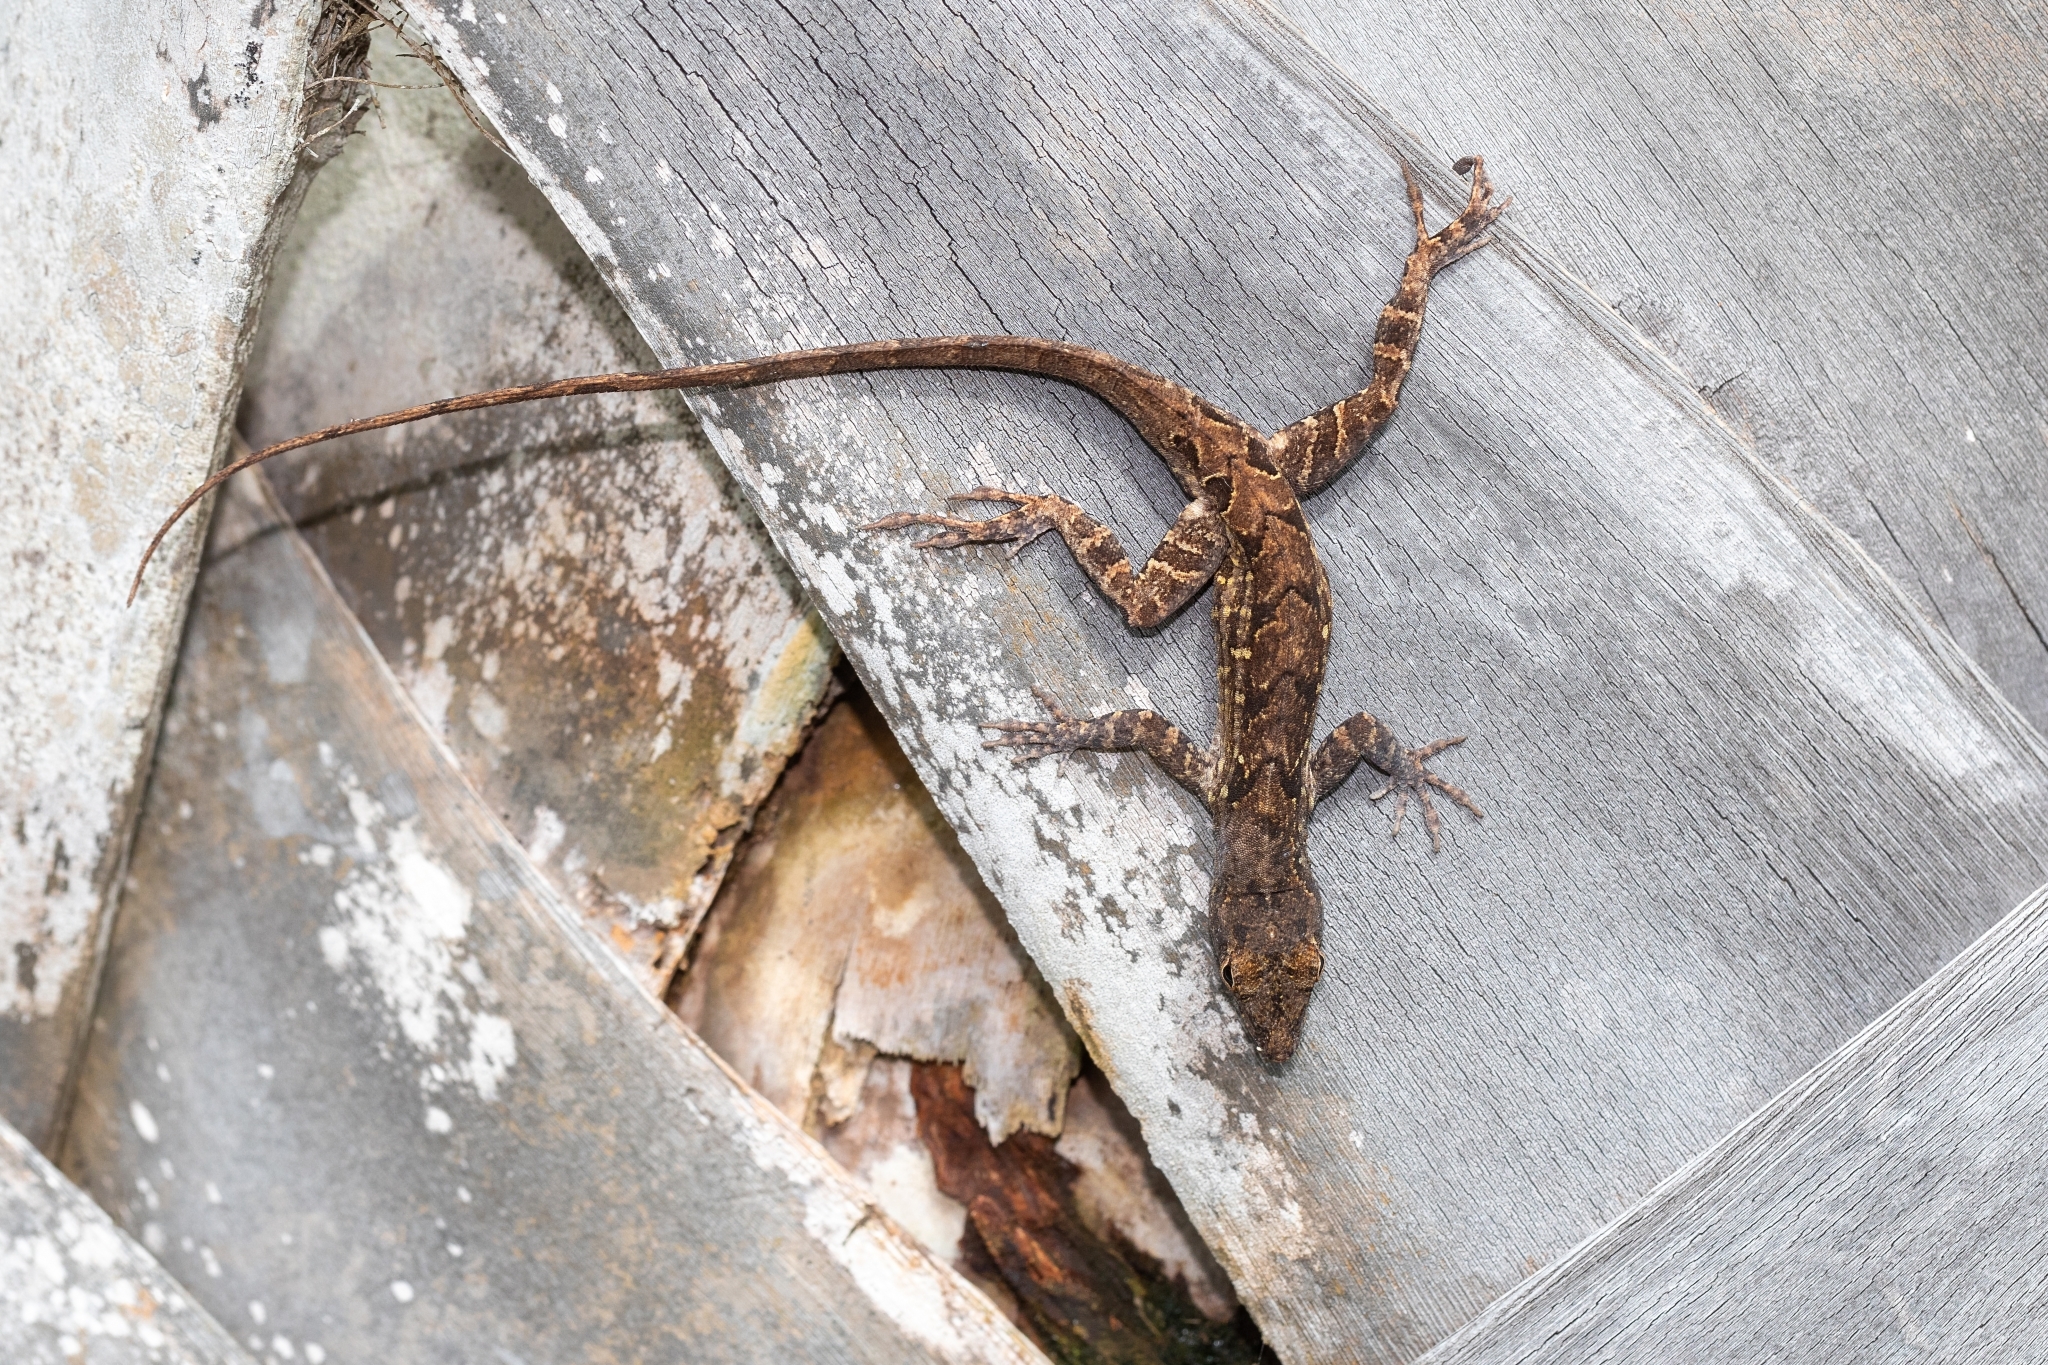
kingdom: Animalia
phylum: Chordata
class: Squamata
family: Dactyloidae
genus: Anolis
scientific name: Anolis sagrei
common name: Brown anole
